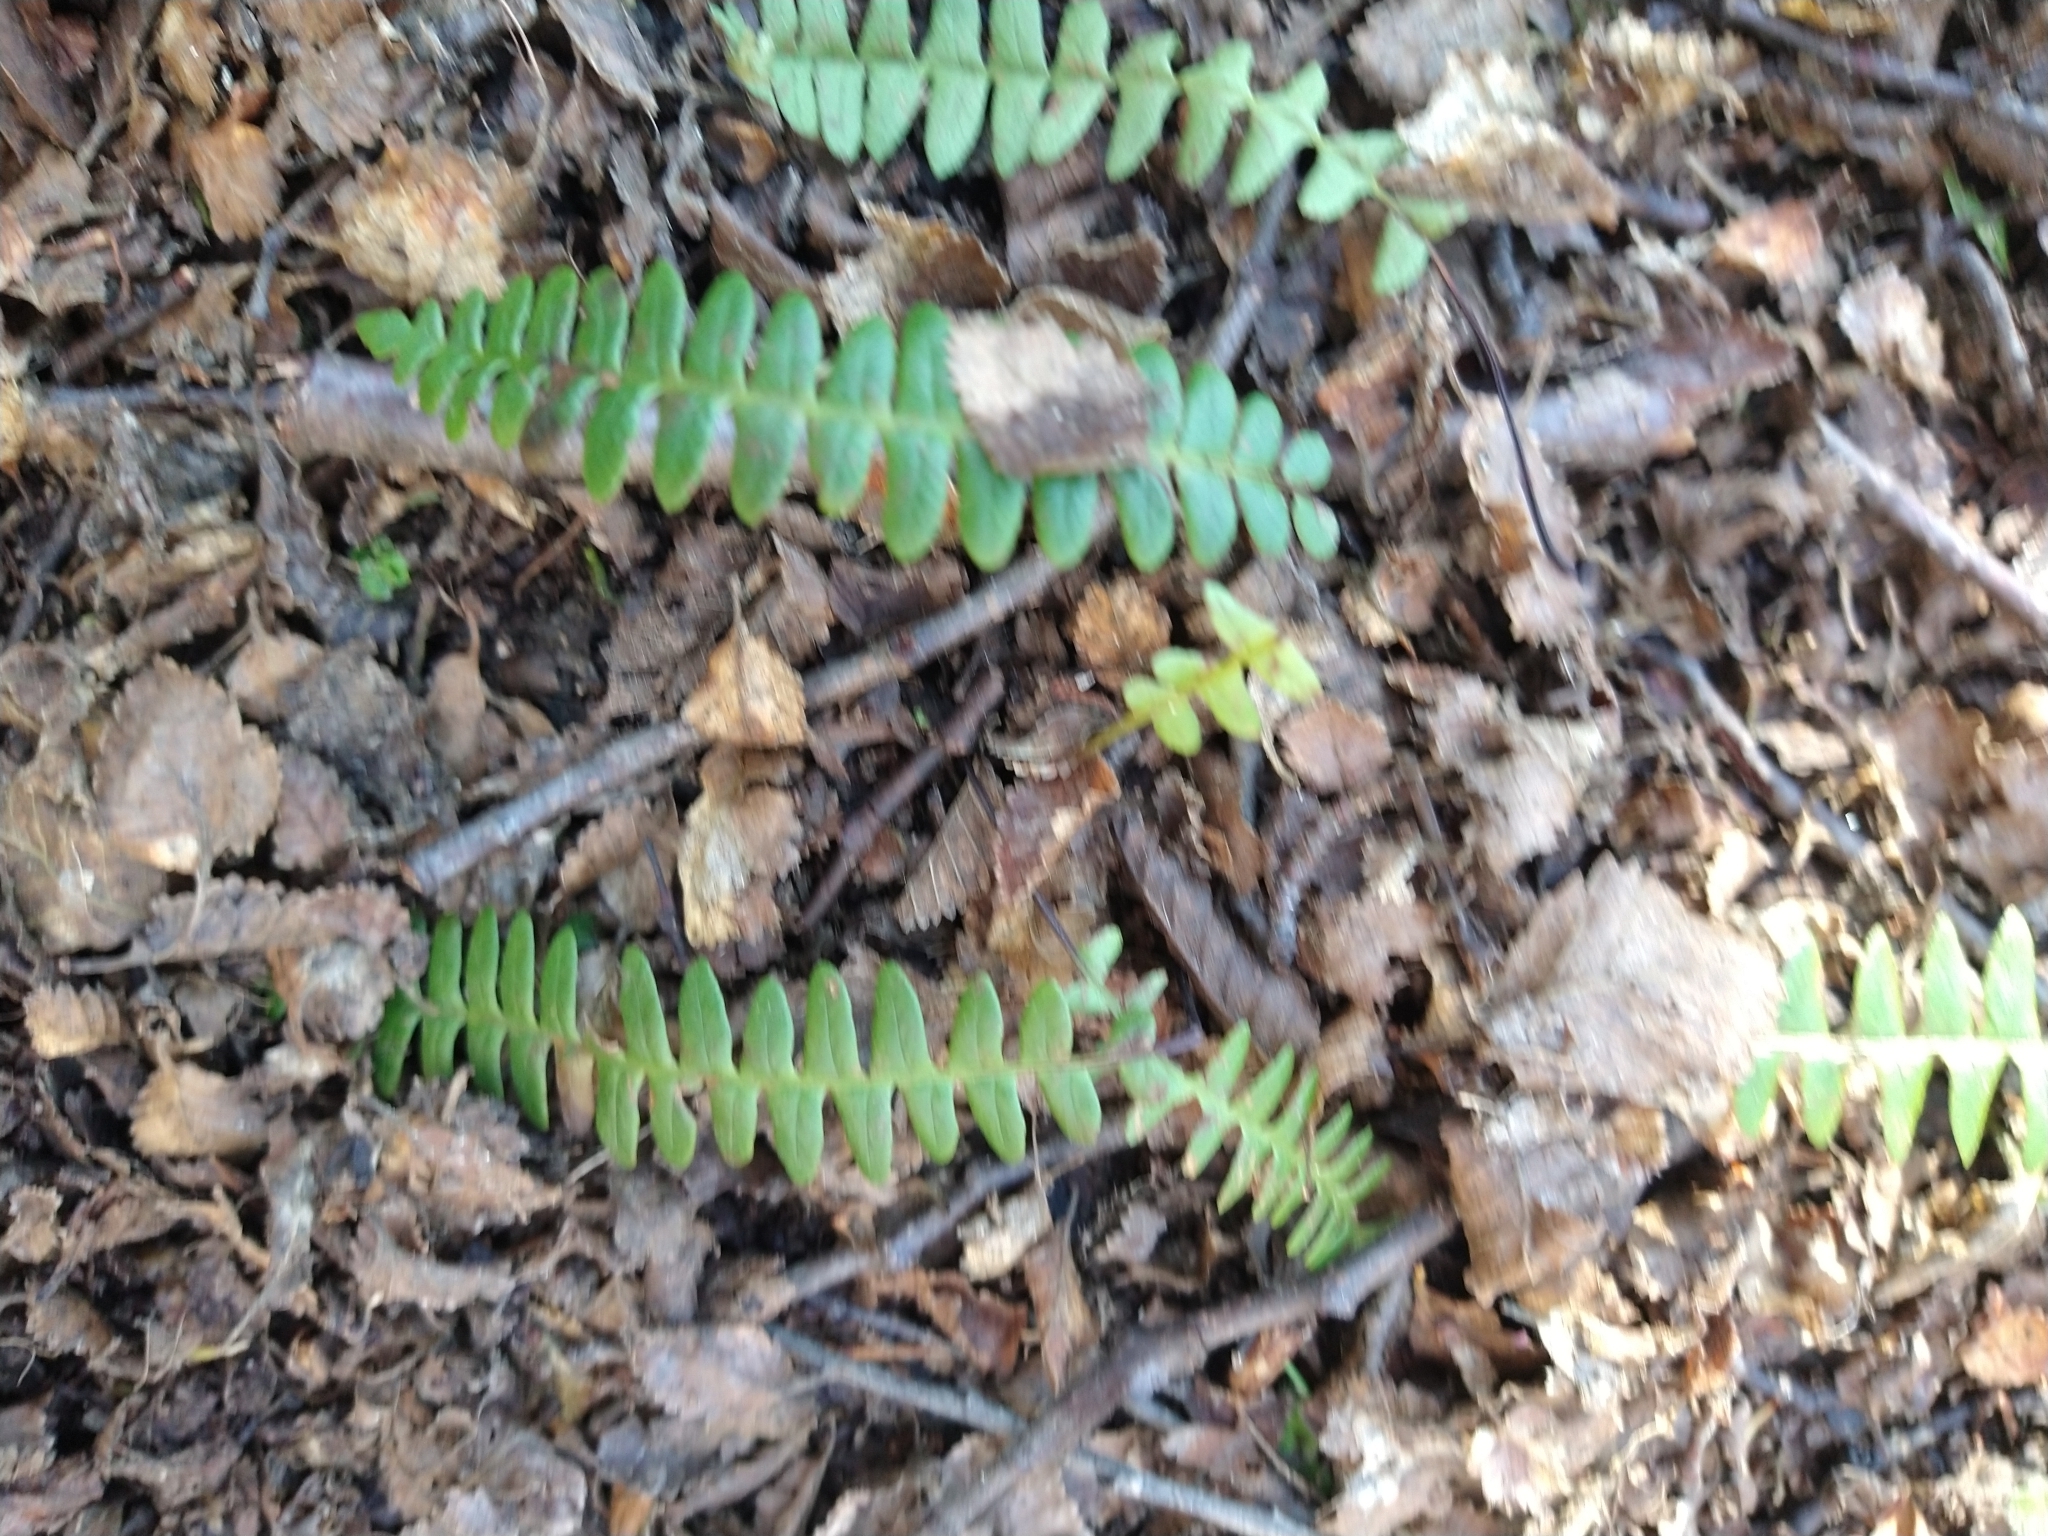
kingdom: Plantae
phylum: Tracheophyta
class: Polypodiopsida
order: Polypodiales
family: Blechnaceae
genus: Austroblechnum
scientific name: Austroblechnum penna-marina
